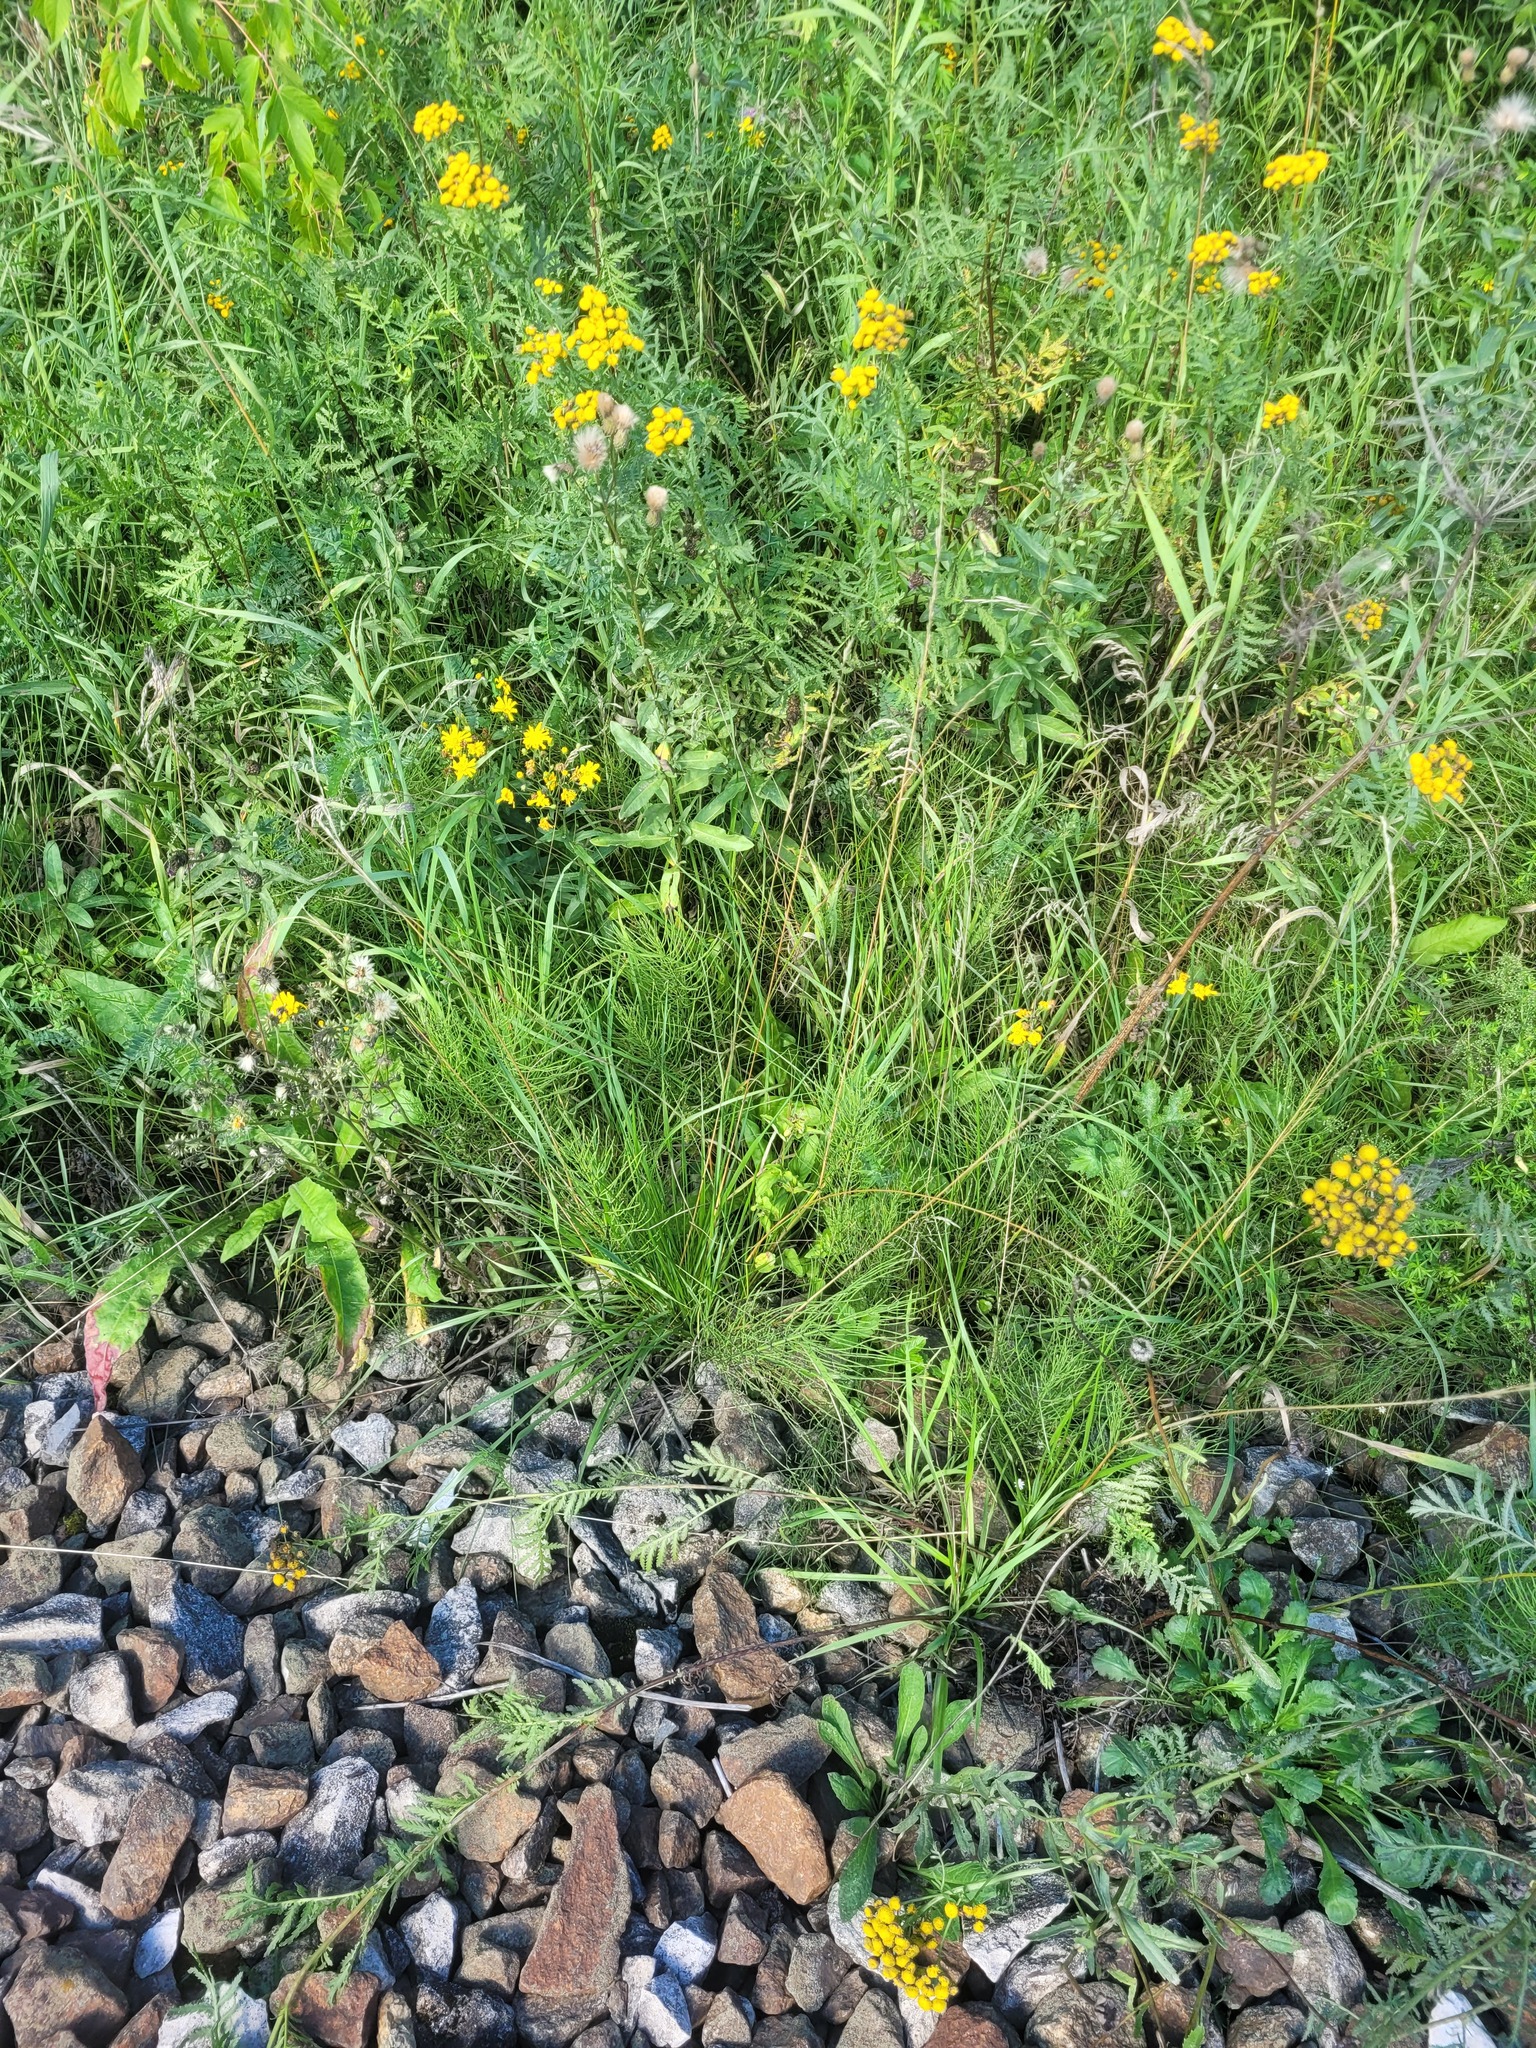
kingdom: Plantae
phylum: Tracheophyta
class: Liliopsida
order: Poales
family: Poaceae
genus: Lolium
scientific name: Lolium pratense
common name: Dover grass
